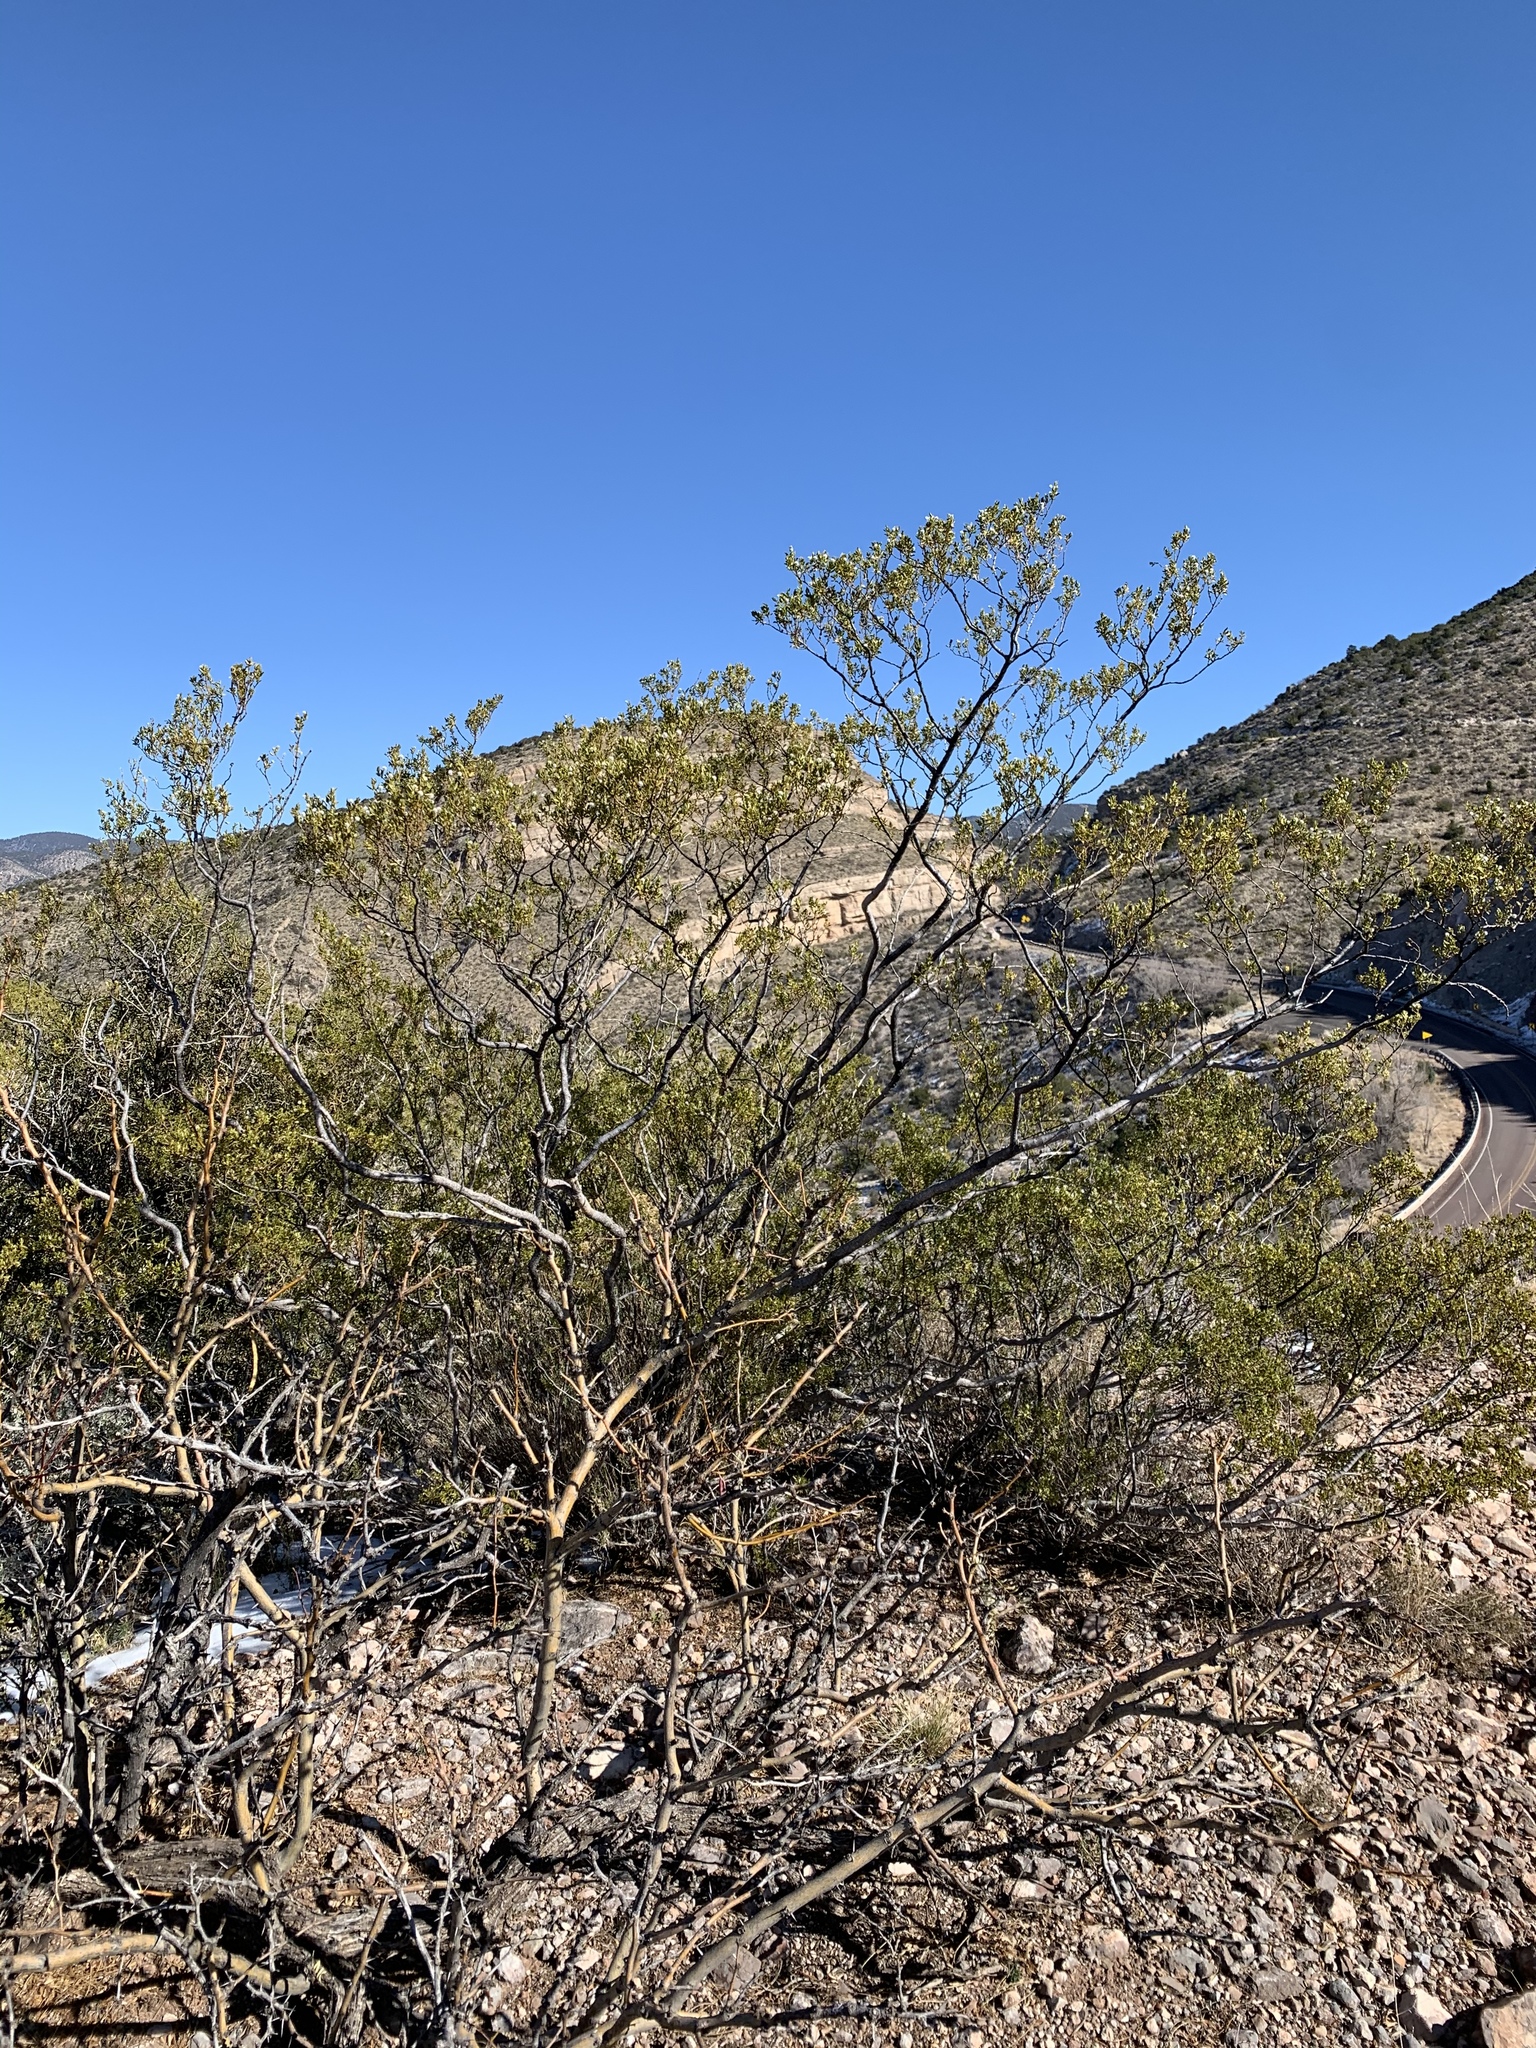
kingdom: Plantae
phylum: Tracheophyta
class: Magnoliopsida
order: Zygophyllales
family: Zygophyllaceae
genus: Larrea
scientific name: Larrea tridentata
